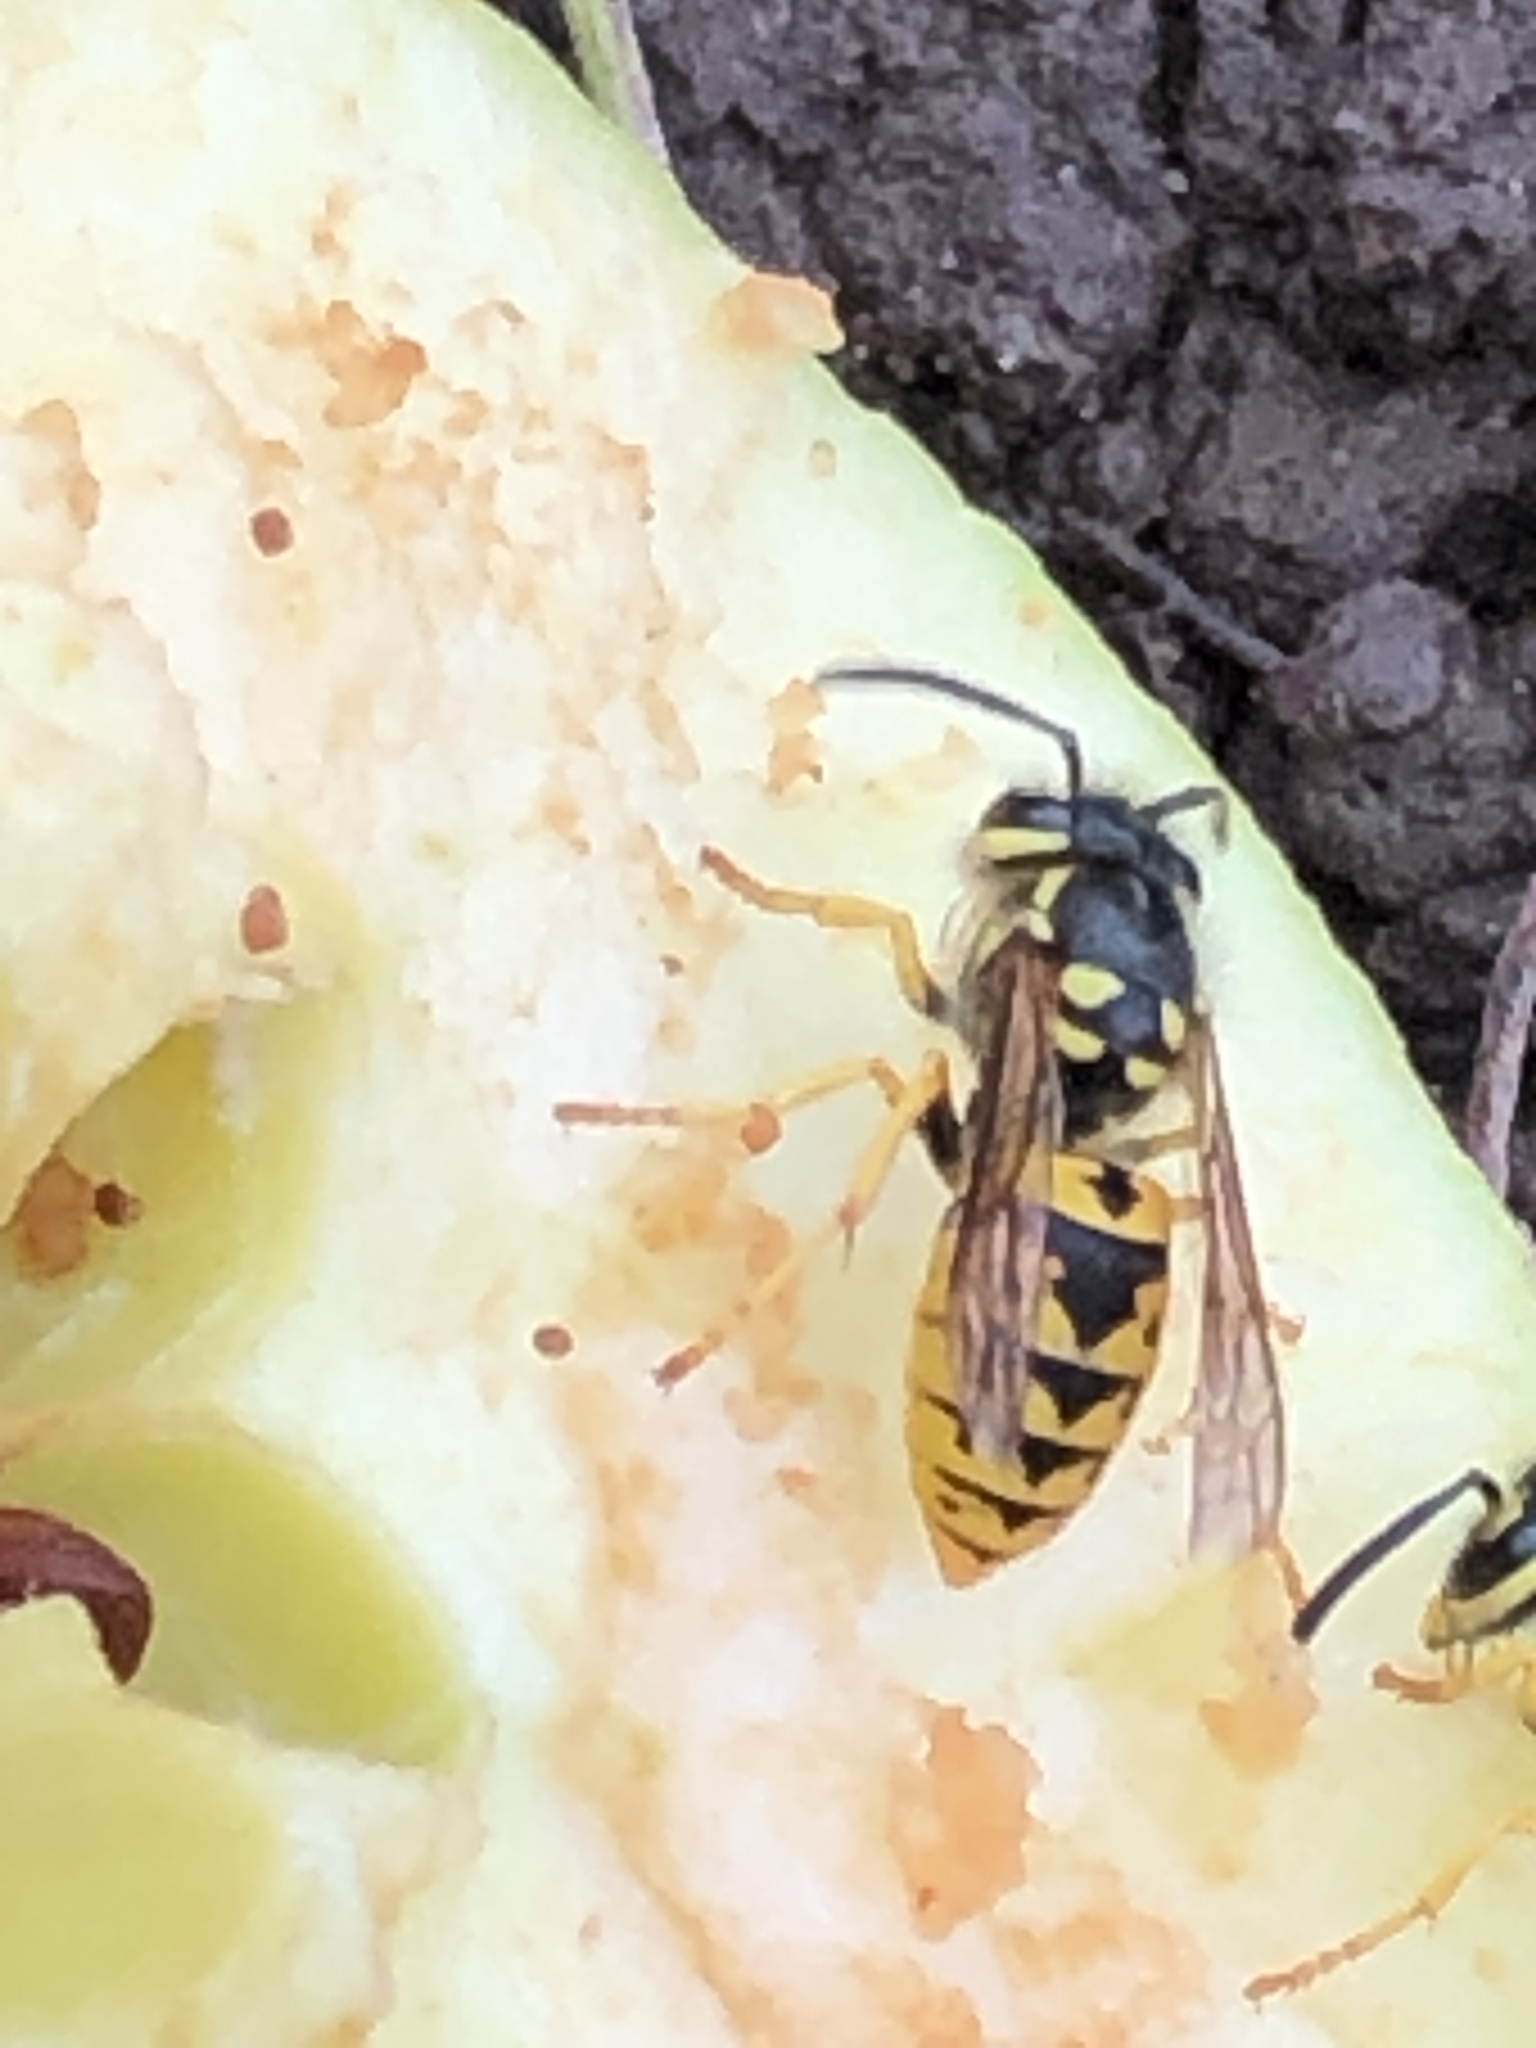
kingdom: Animalia
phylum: Arthropoda
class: Insecta
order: Hymenoptera
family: Vespidae
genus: Vespula
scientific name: Vespula germanica
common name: German wasp
